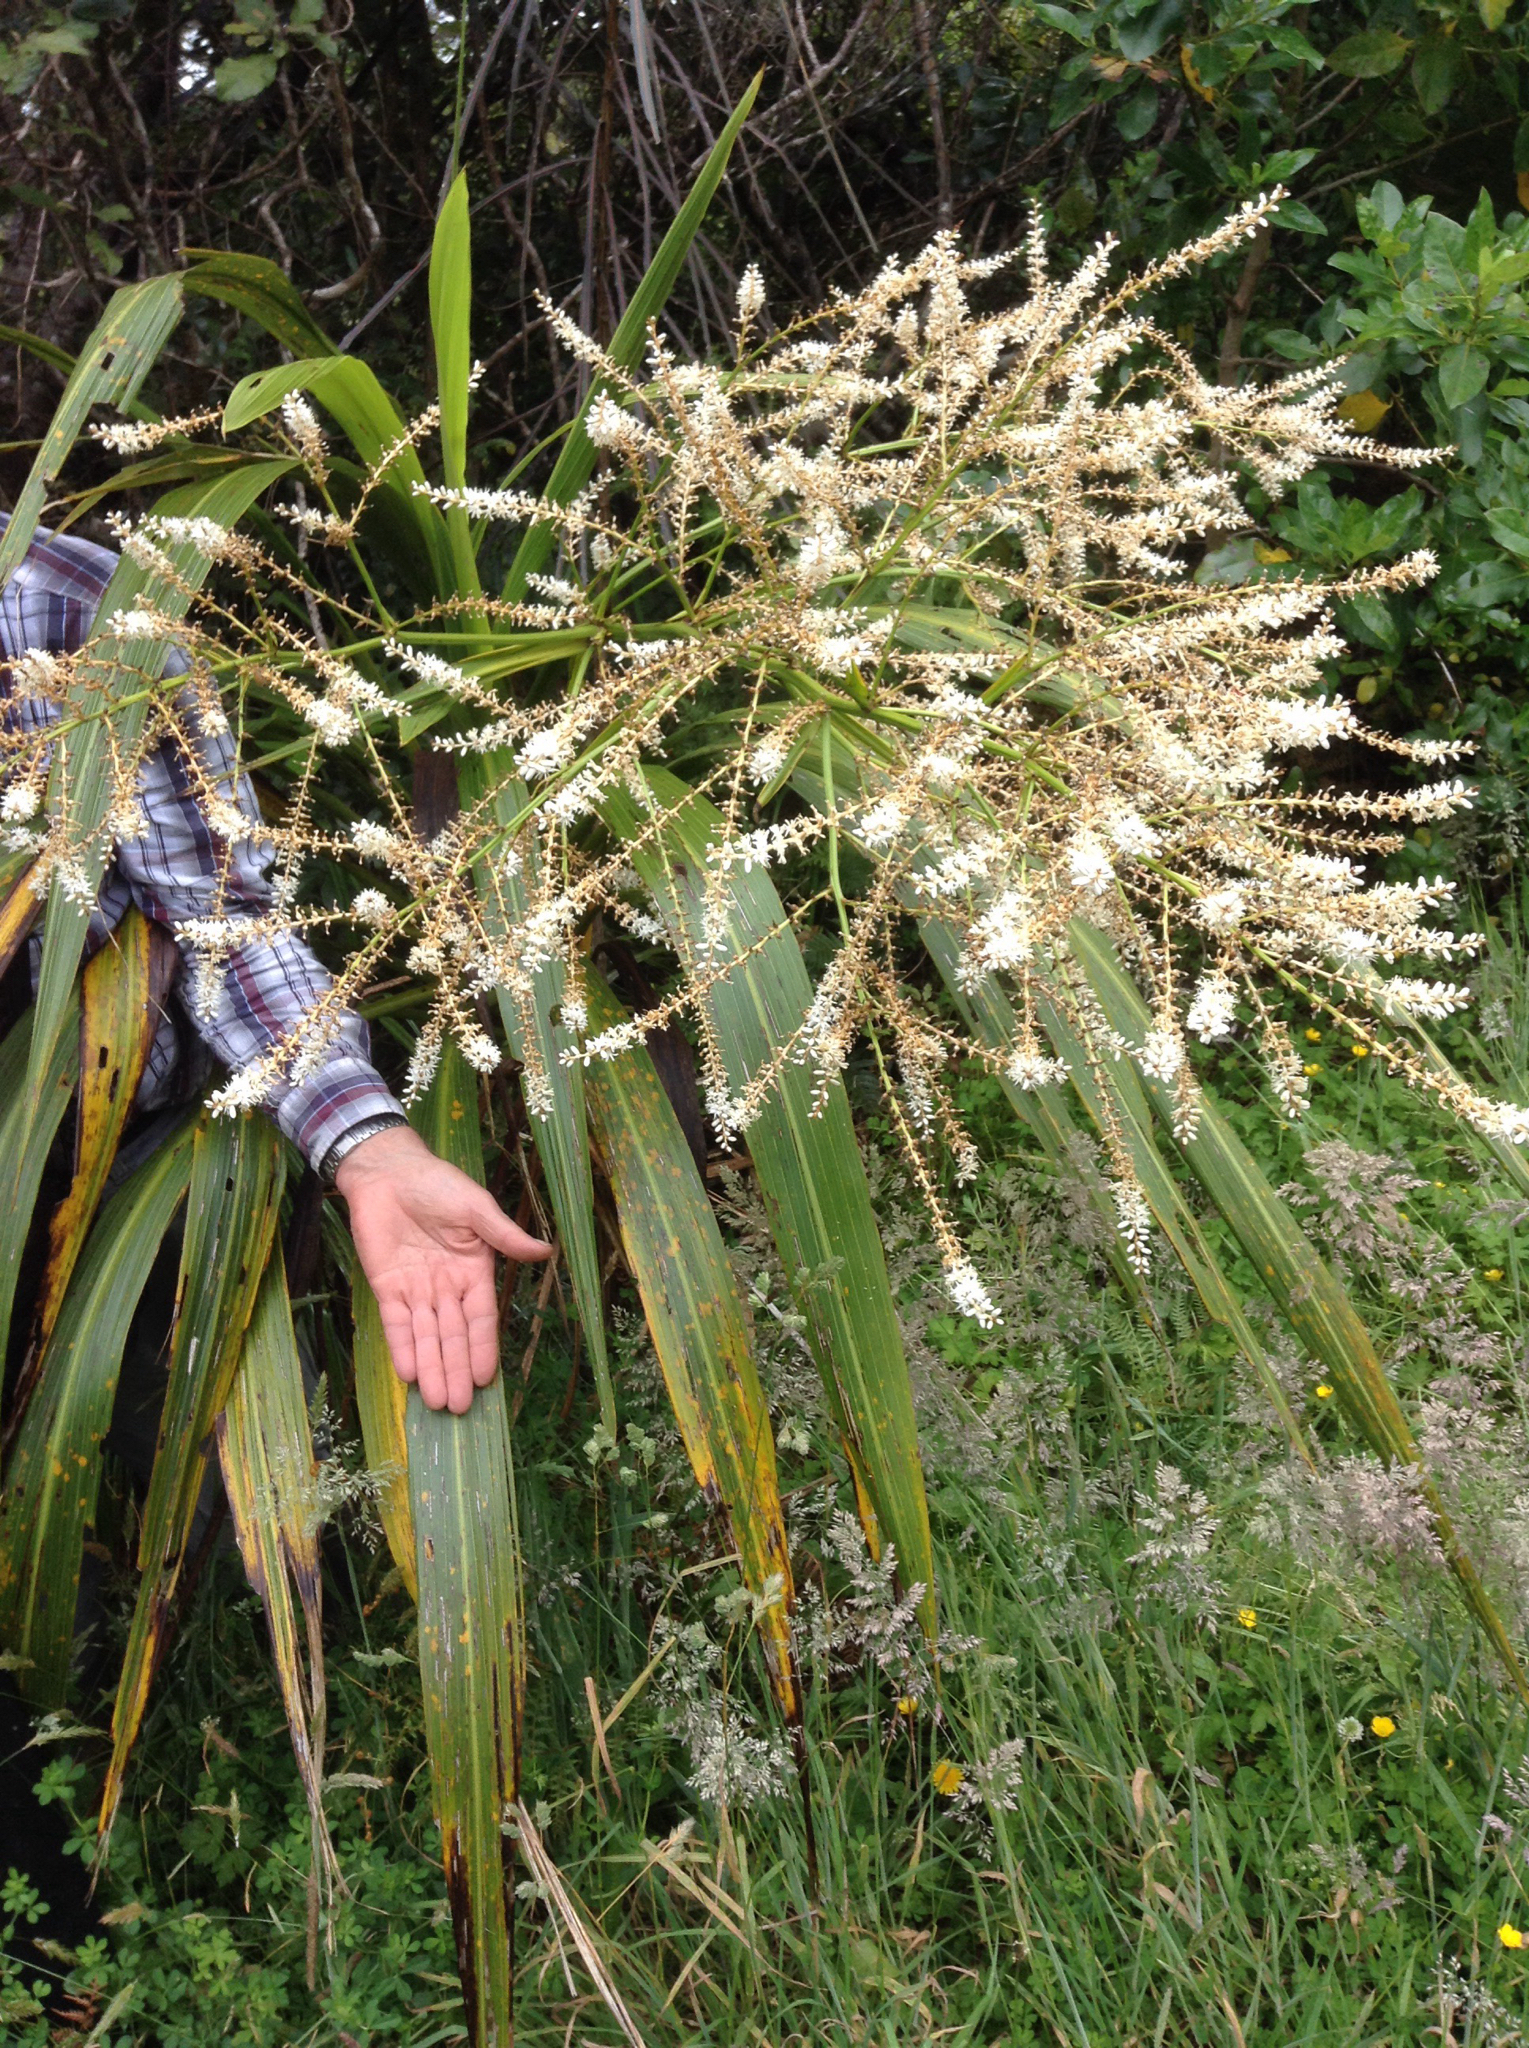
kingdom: Plantae
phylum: Tracheophyta
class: Liliopsida
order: Asparagales
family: Asparagaceae
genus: Cordyline
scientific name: Cordyline banksii
